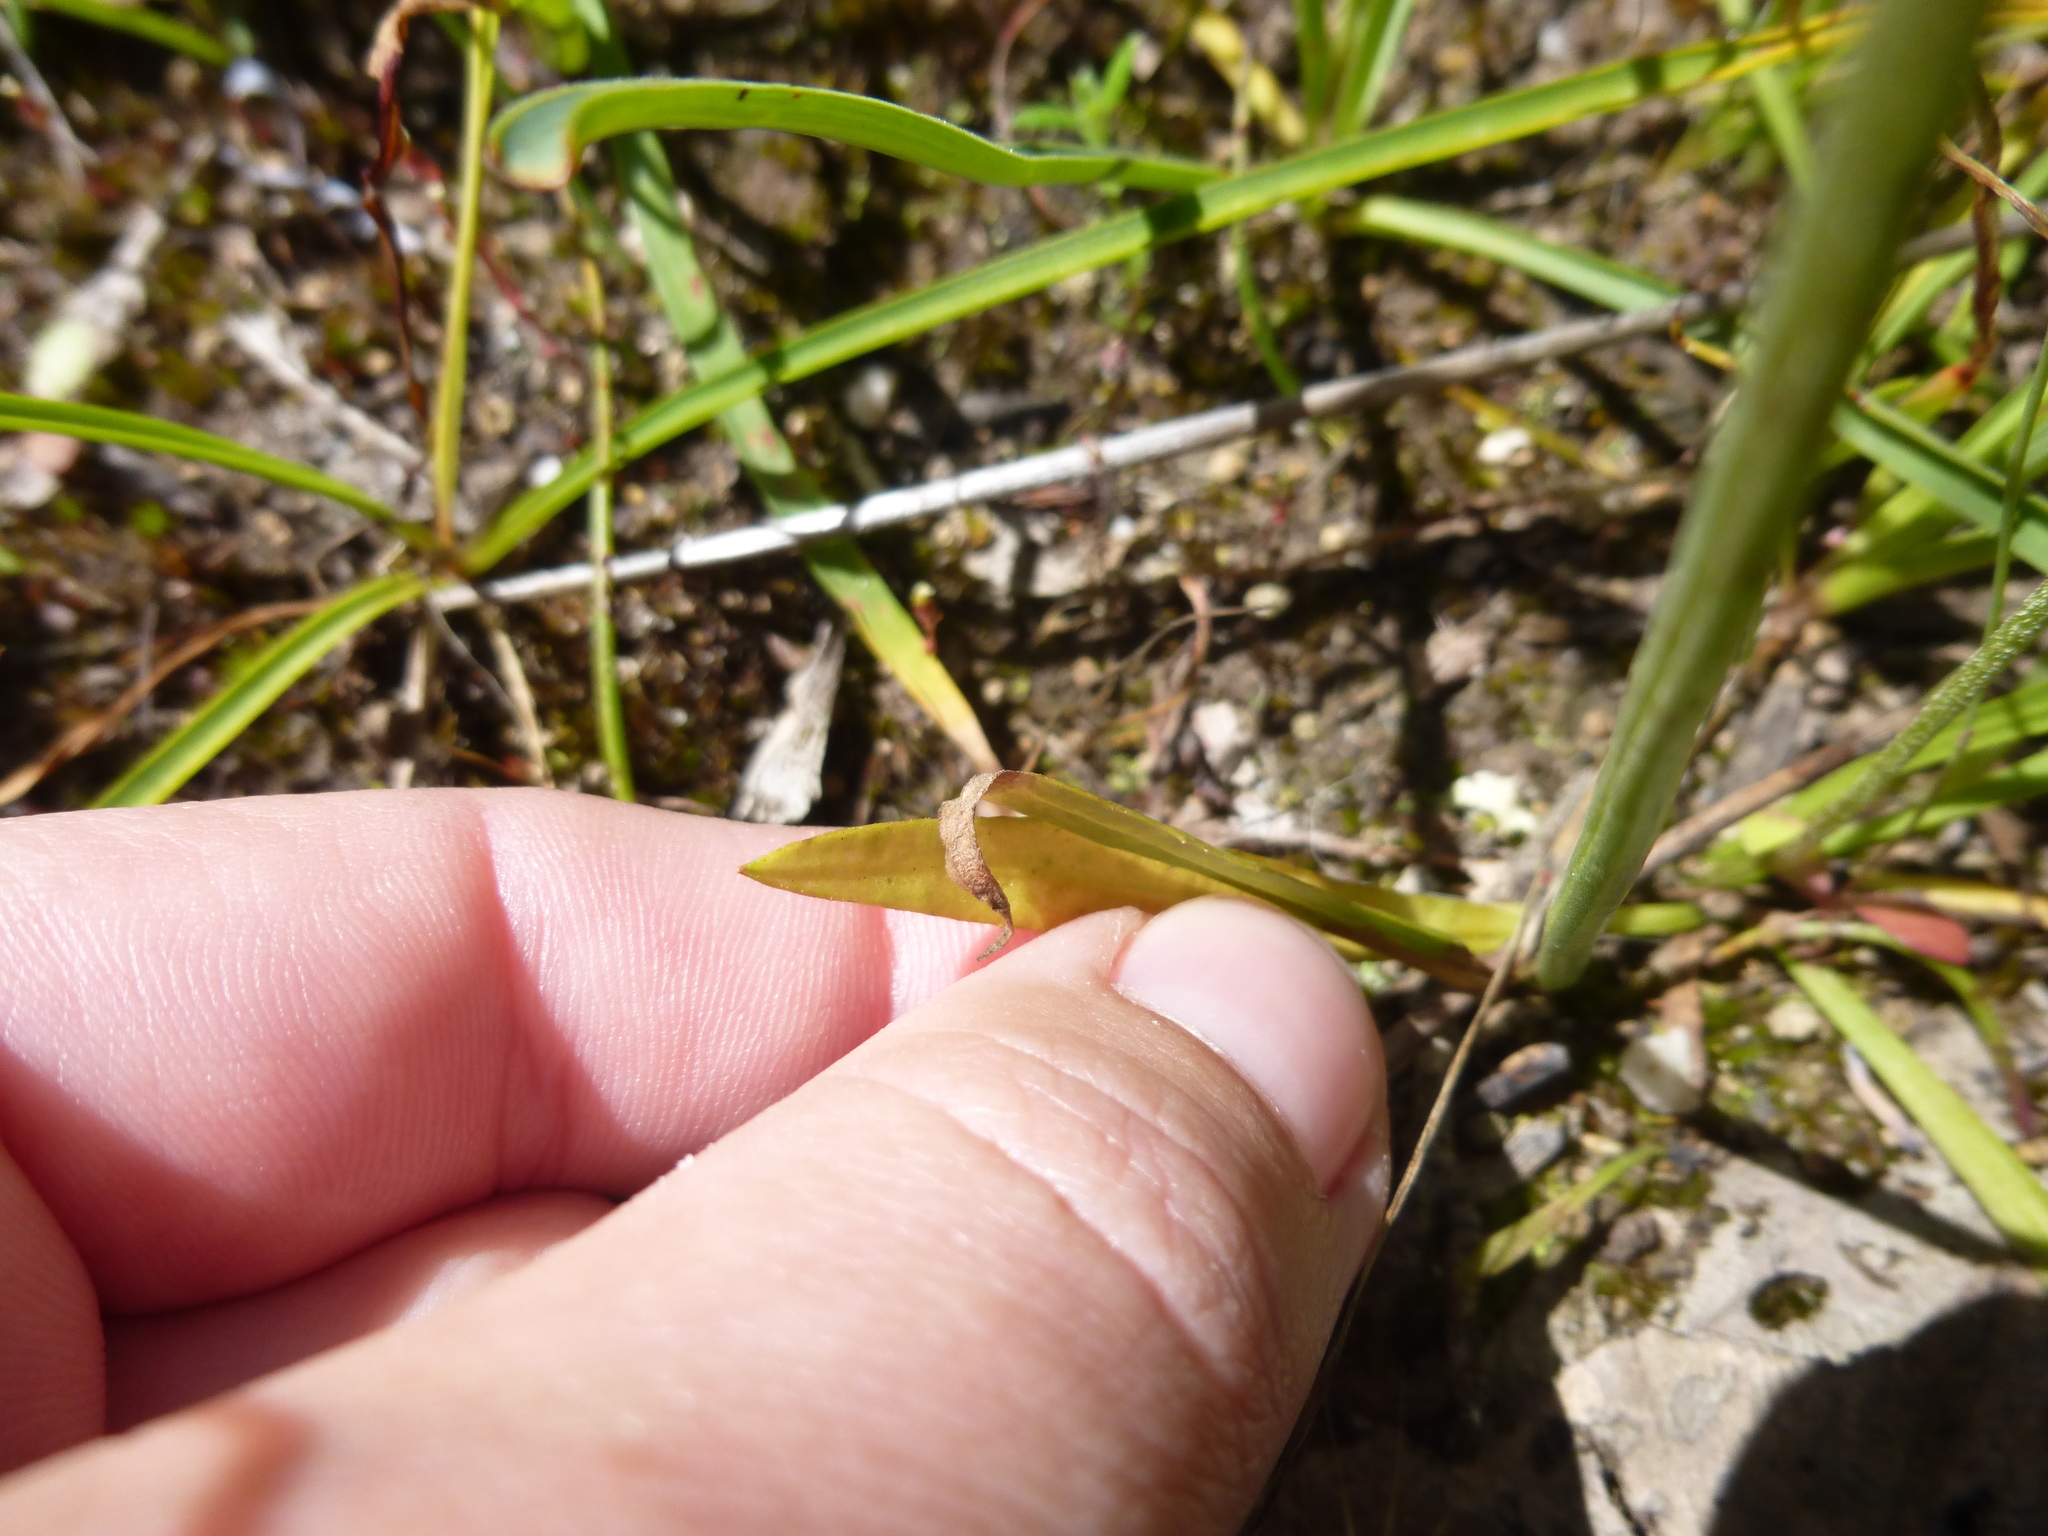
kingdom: Plantae
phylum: Tracheophyta
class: Magnoliopsida
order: Asterales
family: Asteraceae
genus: Microseris
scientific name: Microseris lanceolata
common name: Yam daisy
